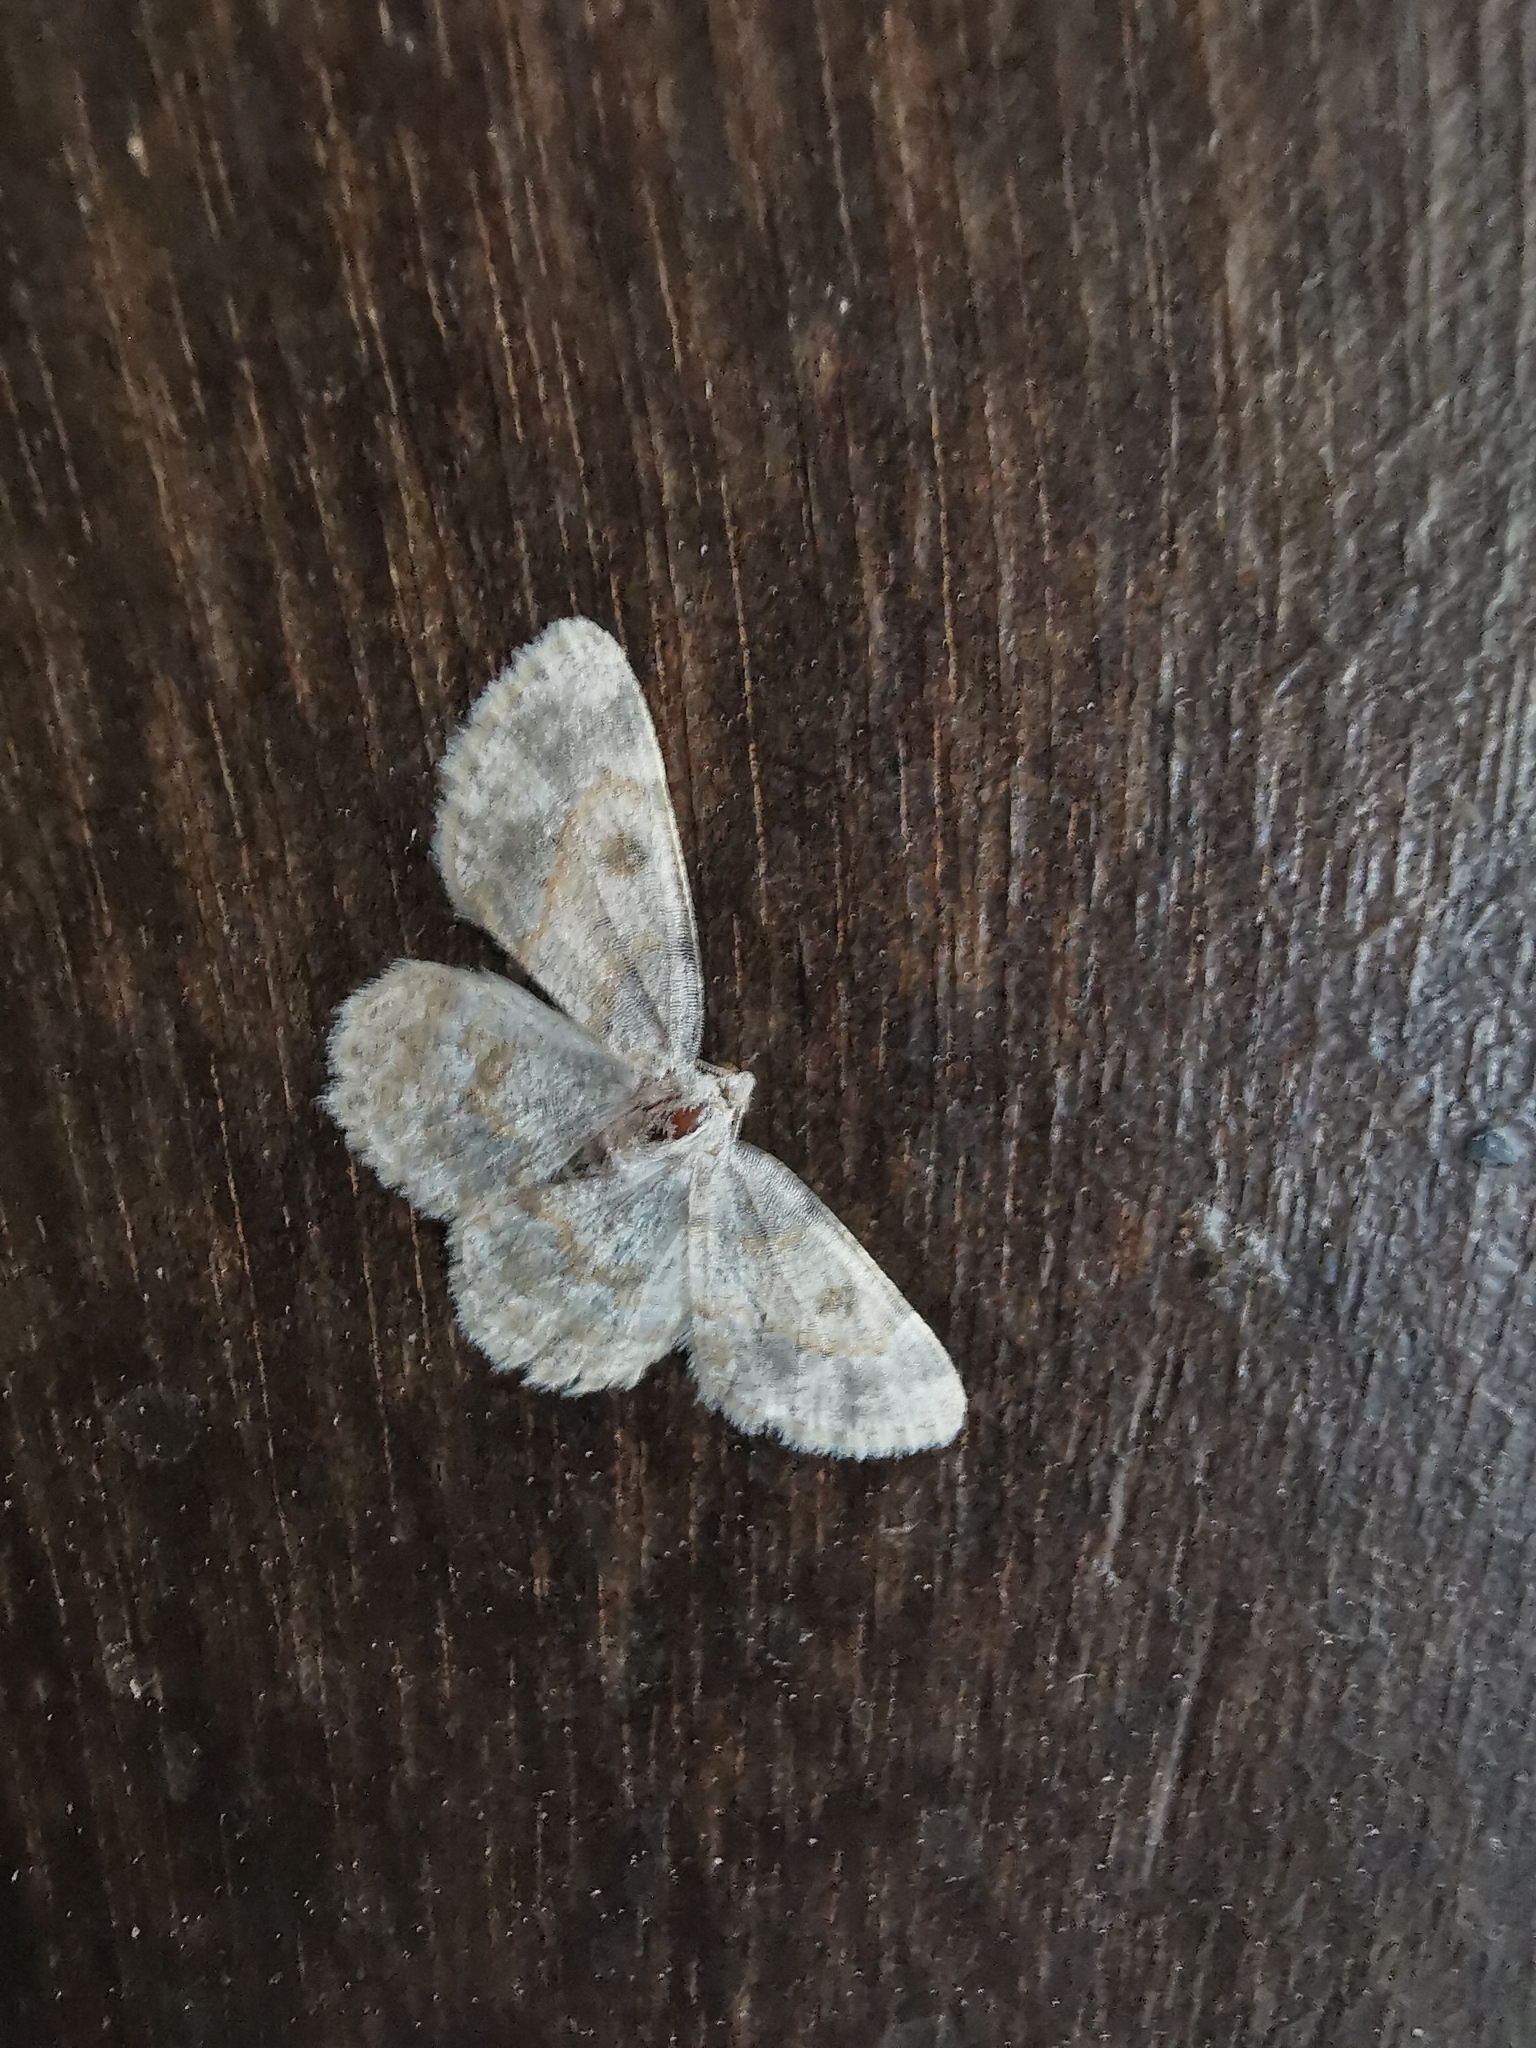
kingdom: Animalia
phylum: Arthropoda
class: Insecta
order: Lepidoptera
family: Geometridae
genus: Charissa
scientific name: Charissa
